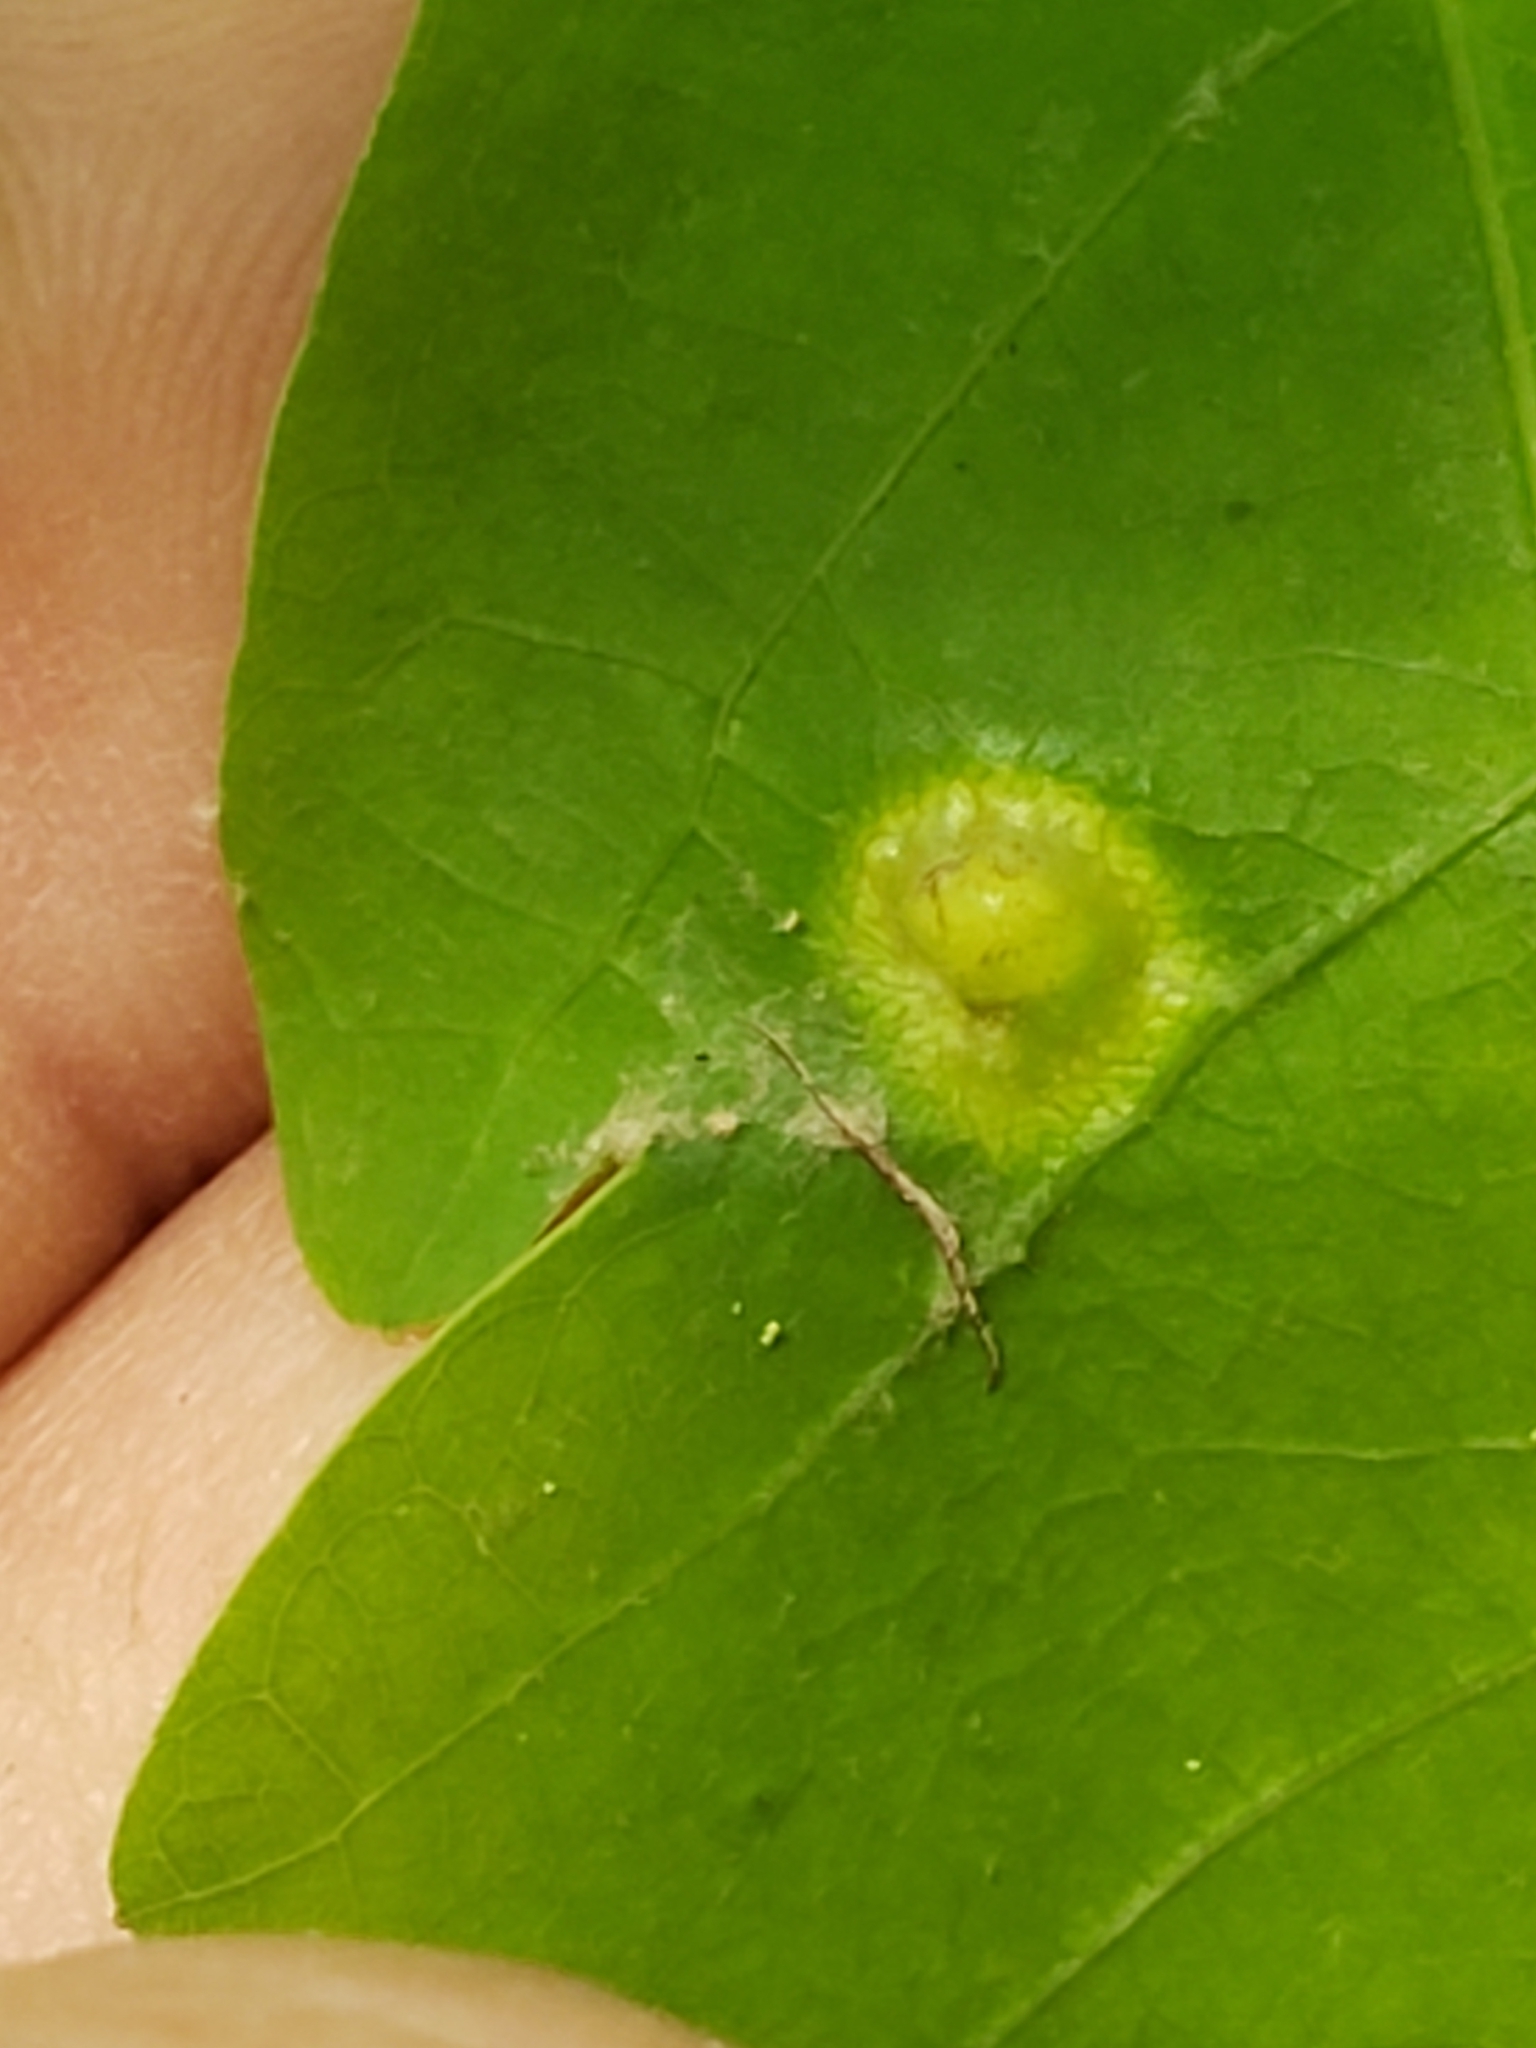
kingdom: Animalia
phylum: Arthropoda
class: Insecta
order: Hymenoptera
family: Cynipidae
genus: Callirhytis
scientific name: Callirhytis
